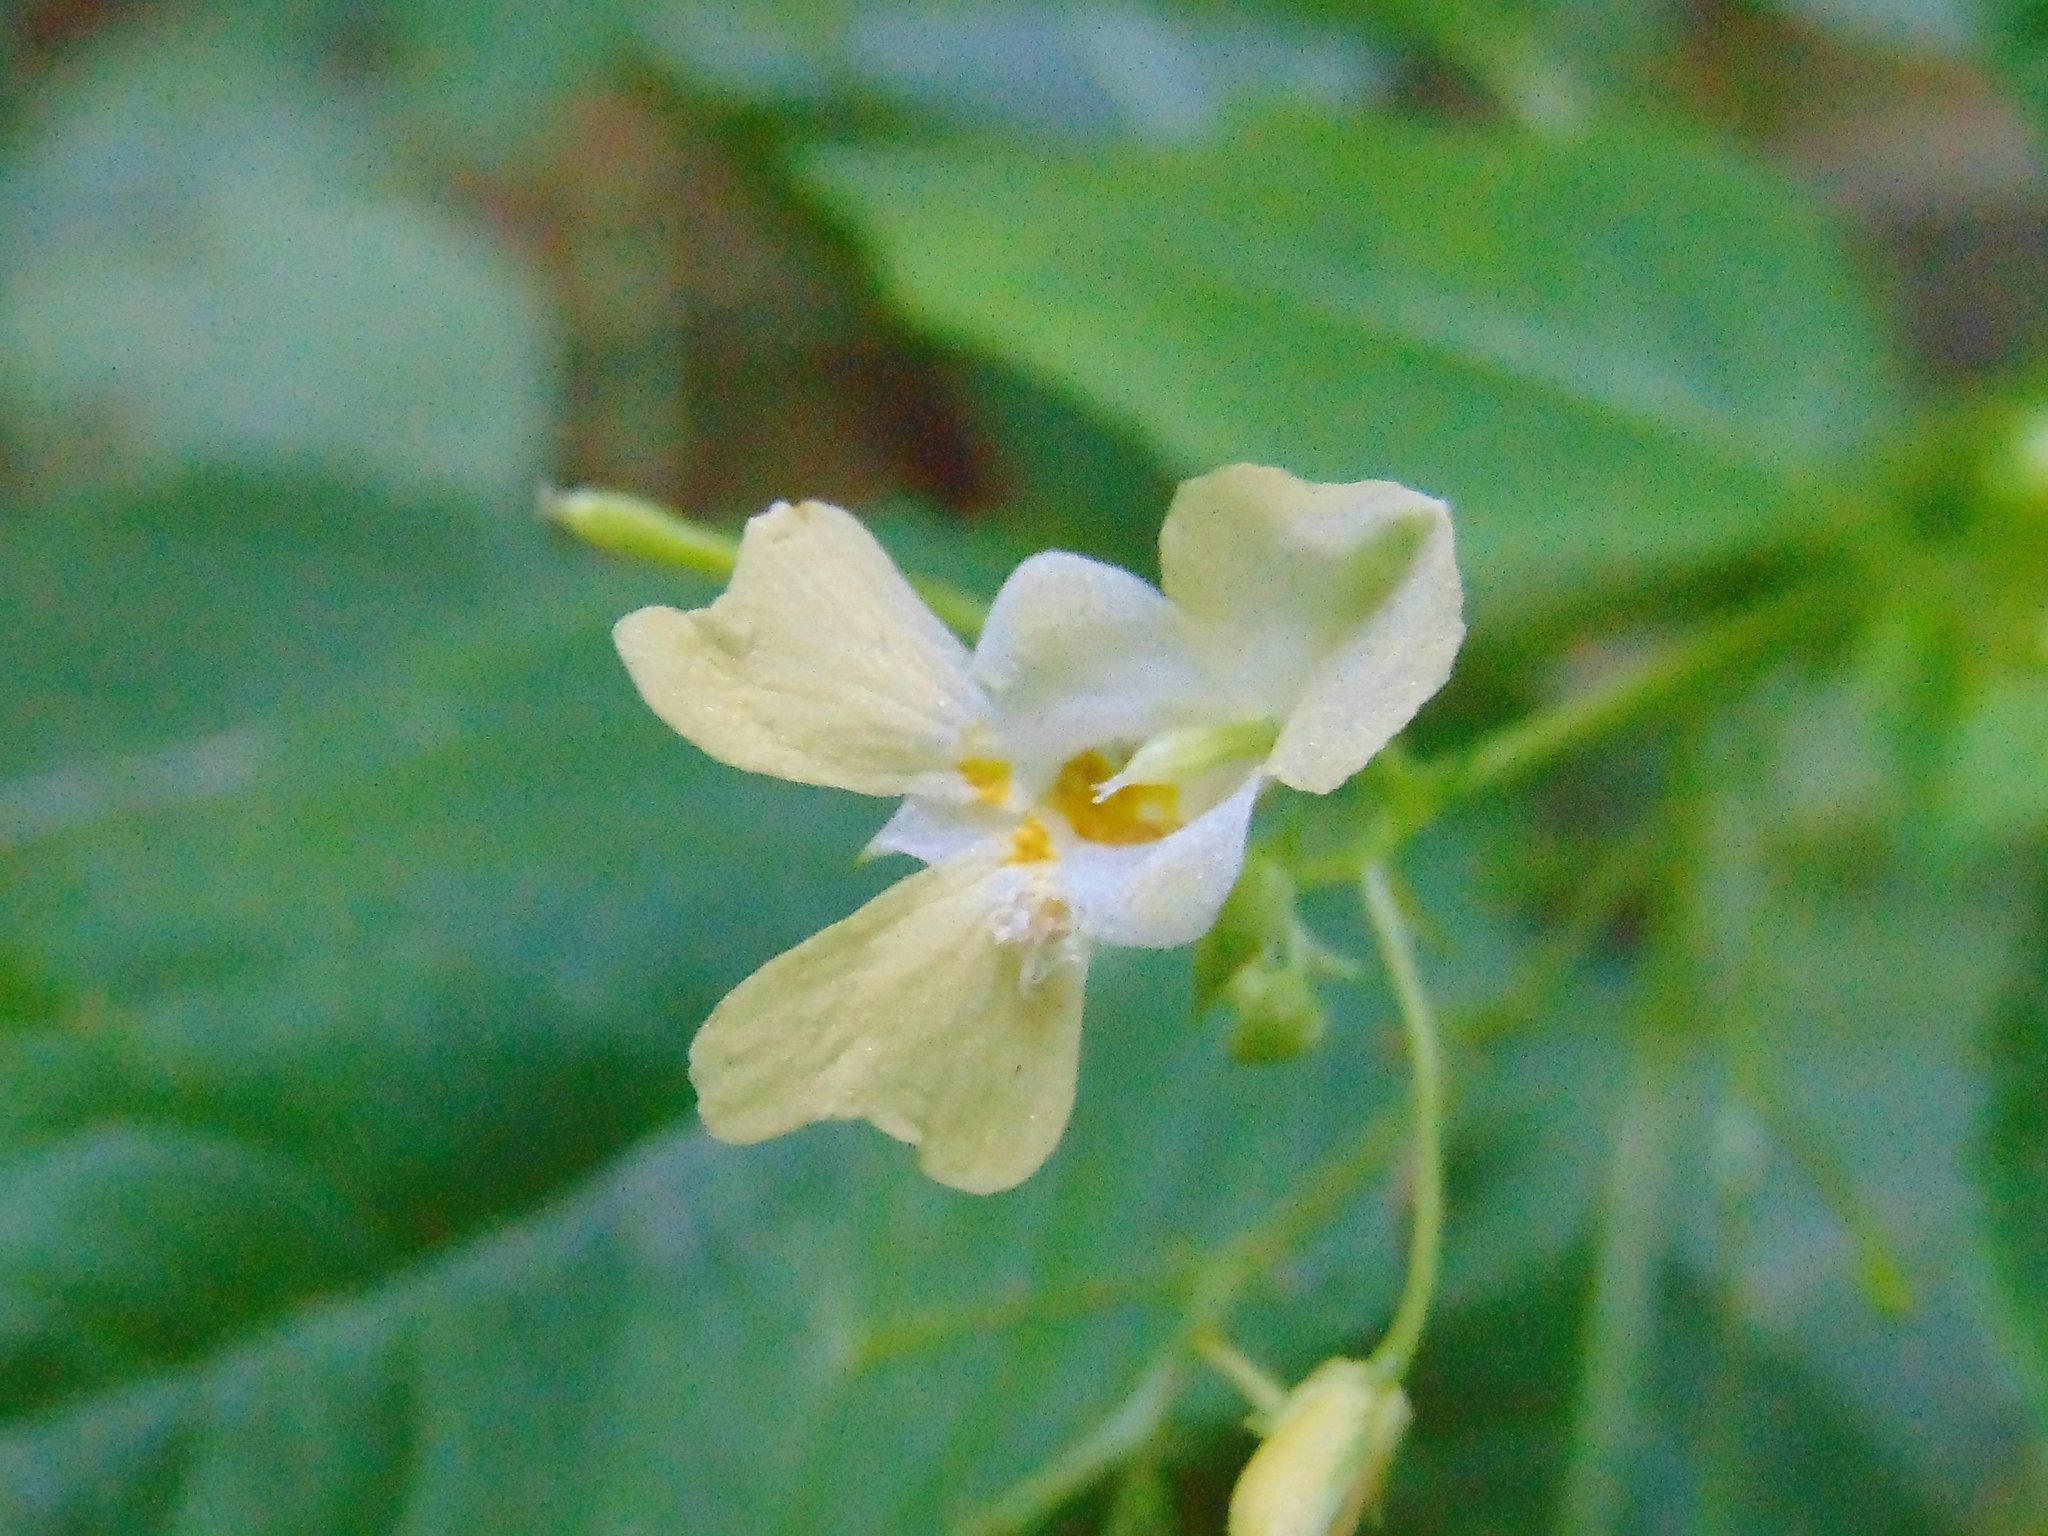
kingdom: Plantae
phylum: Tracheophyta
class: Magnoliopsida
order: Ericales
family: Balsaminaceae
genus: Impatiens
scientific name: Impatiens parviflora
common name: Small balsam
